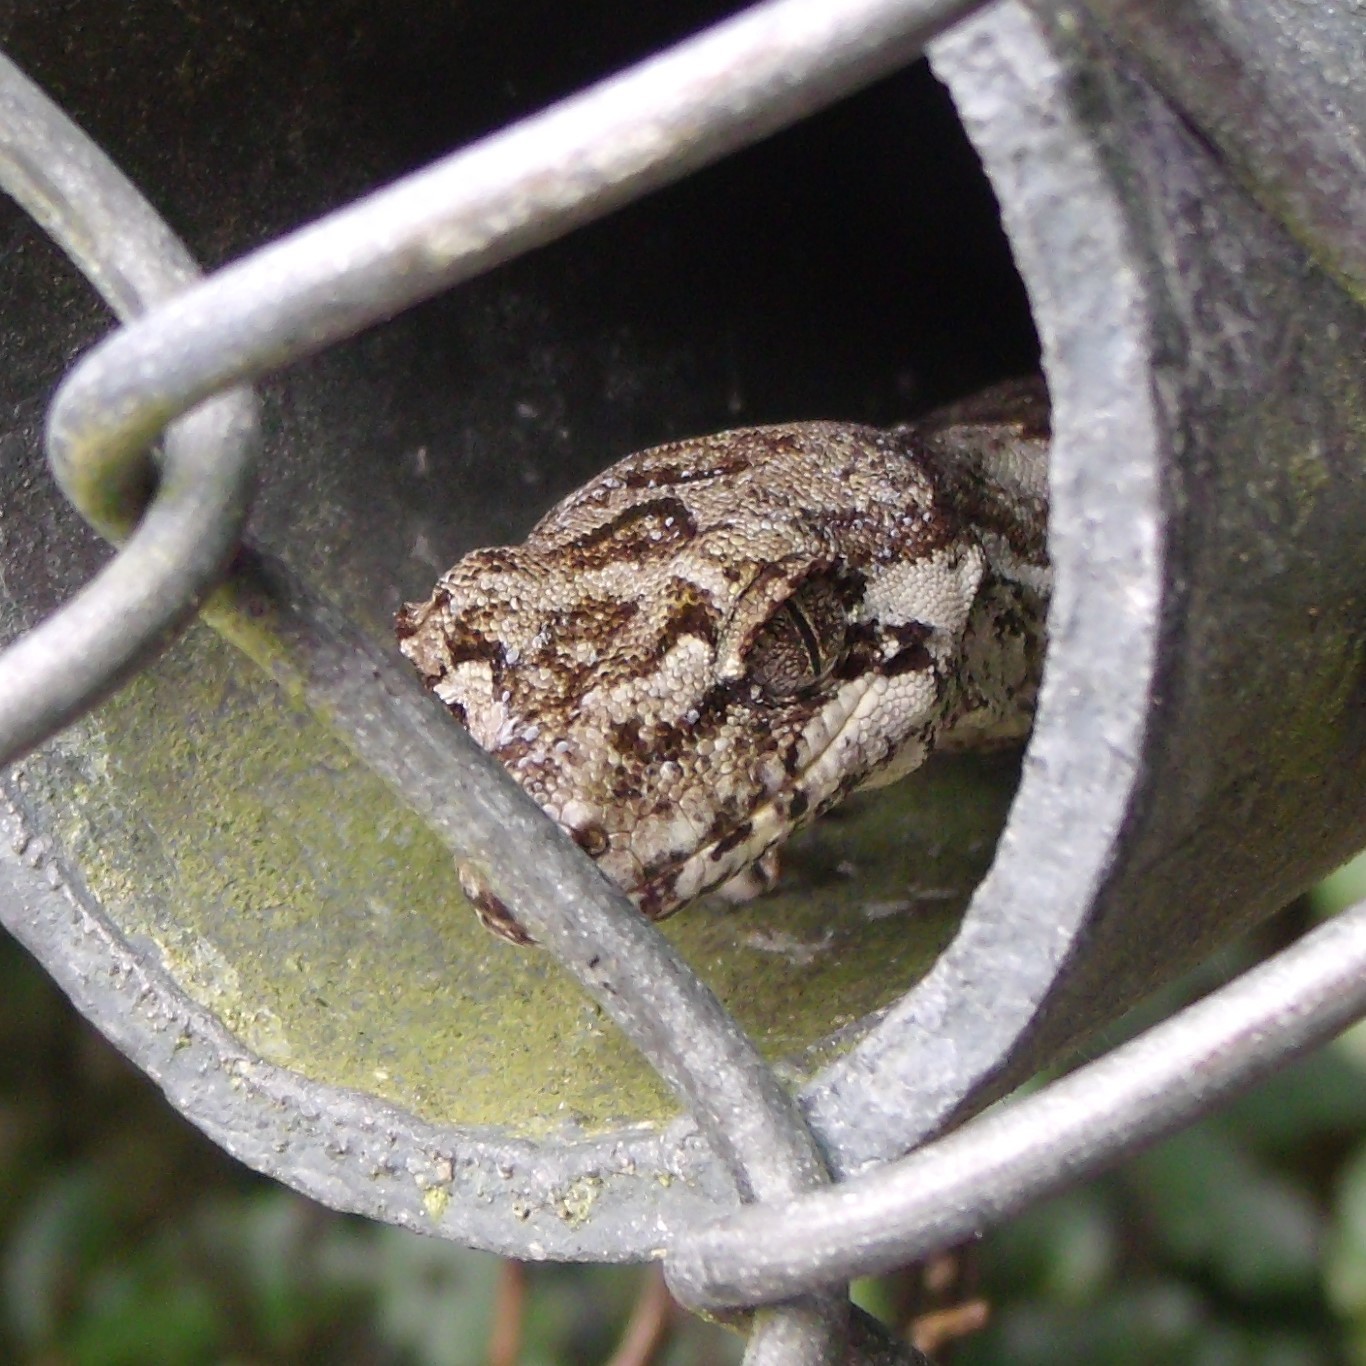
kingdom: Animalia
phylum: Chordata
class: Squamata
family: Diplodactylidae
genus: Mokopirirakau
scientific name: Mokopirirakau
